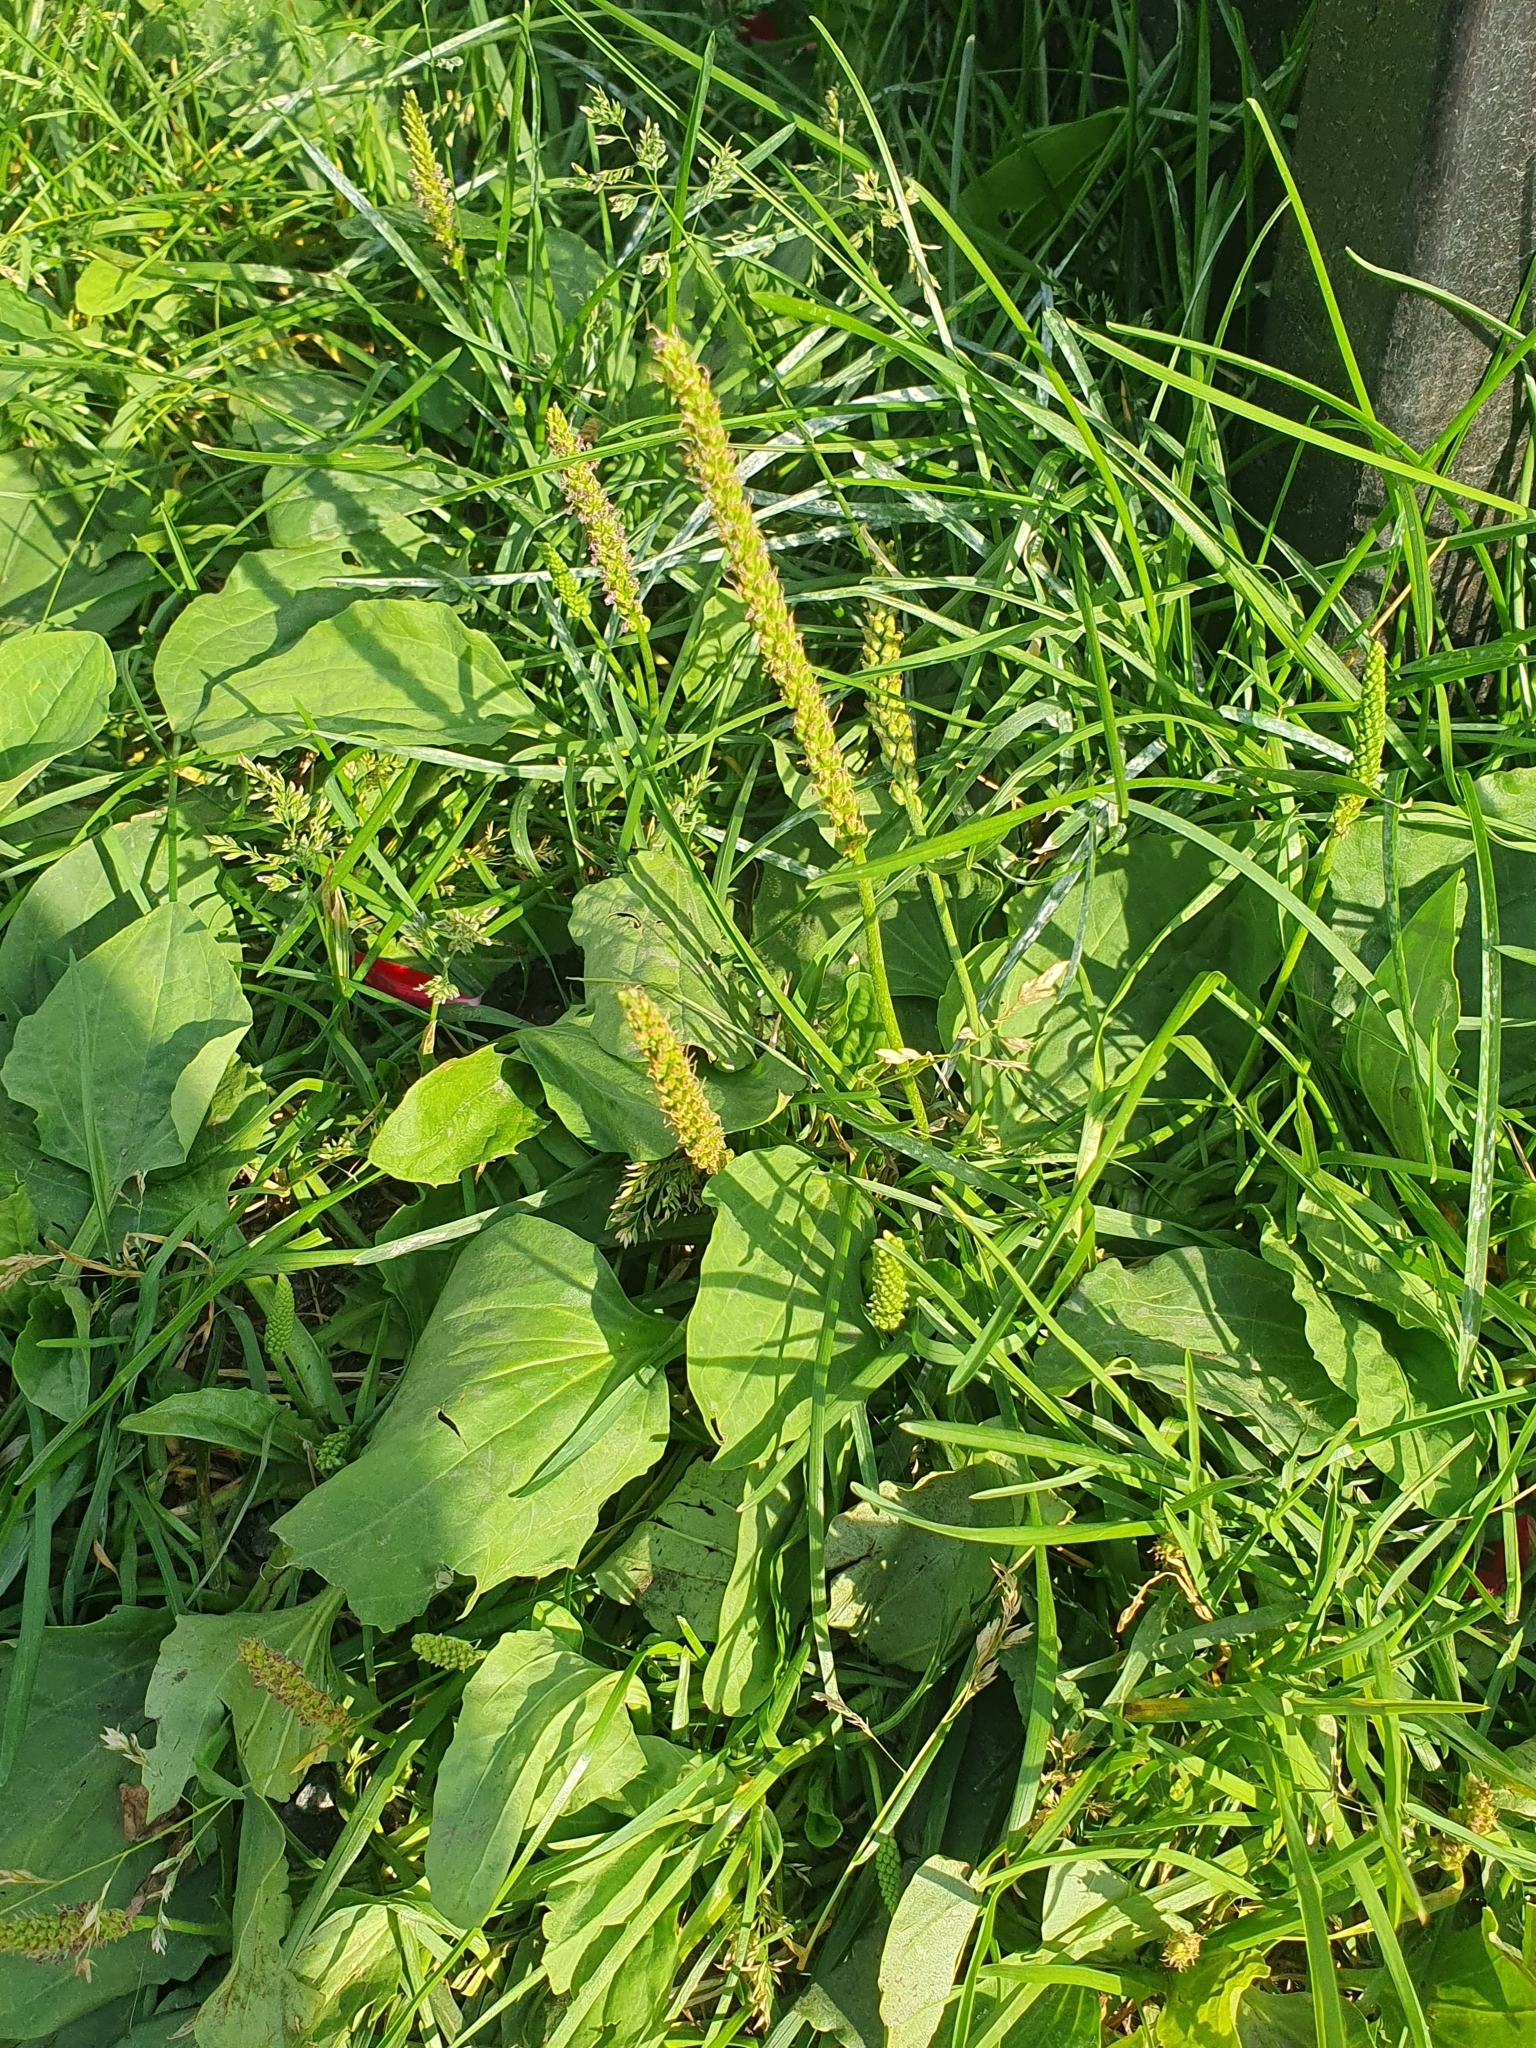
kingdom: Plantae
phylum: Tracheophyta
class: Magnoliopsida
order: Lamiales
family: Plantaginaceae
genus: Plantago
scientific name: Plantago major
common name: Common plantain
